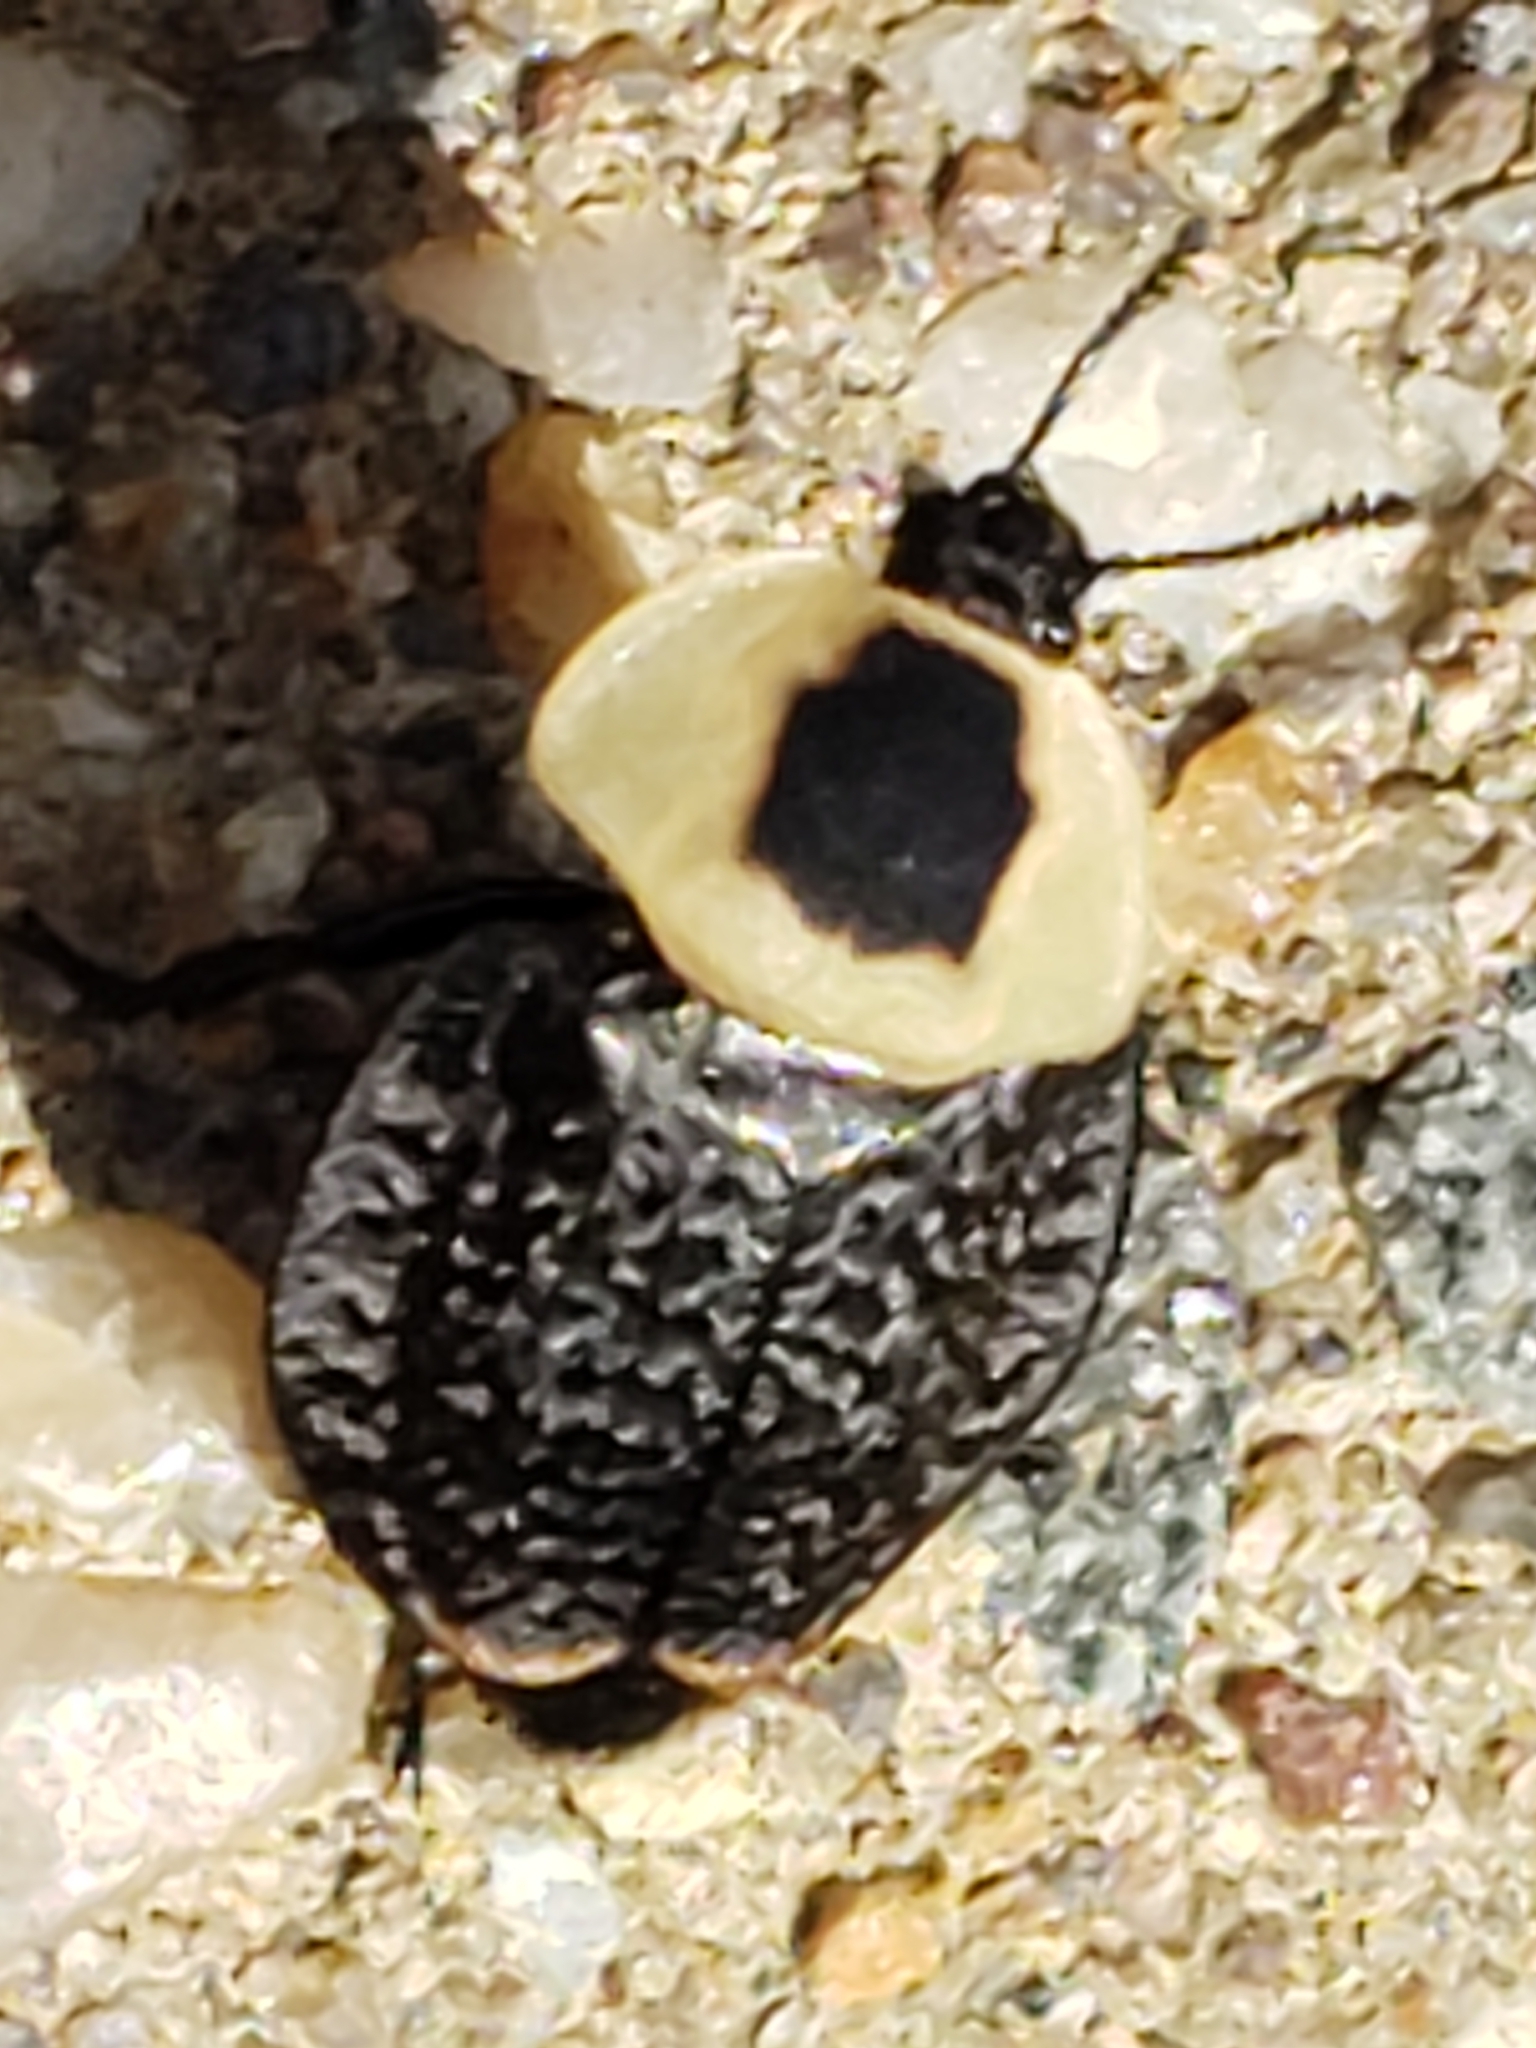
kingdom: Animalia
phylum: Arthropoda
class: Insecta
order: Coleoptera
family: Staphylinidae
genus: Necrophila
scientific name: Necrophila americana
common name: American carrion beetle
